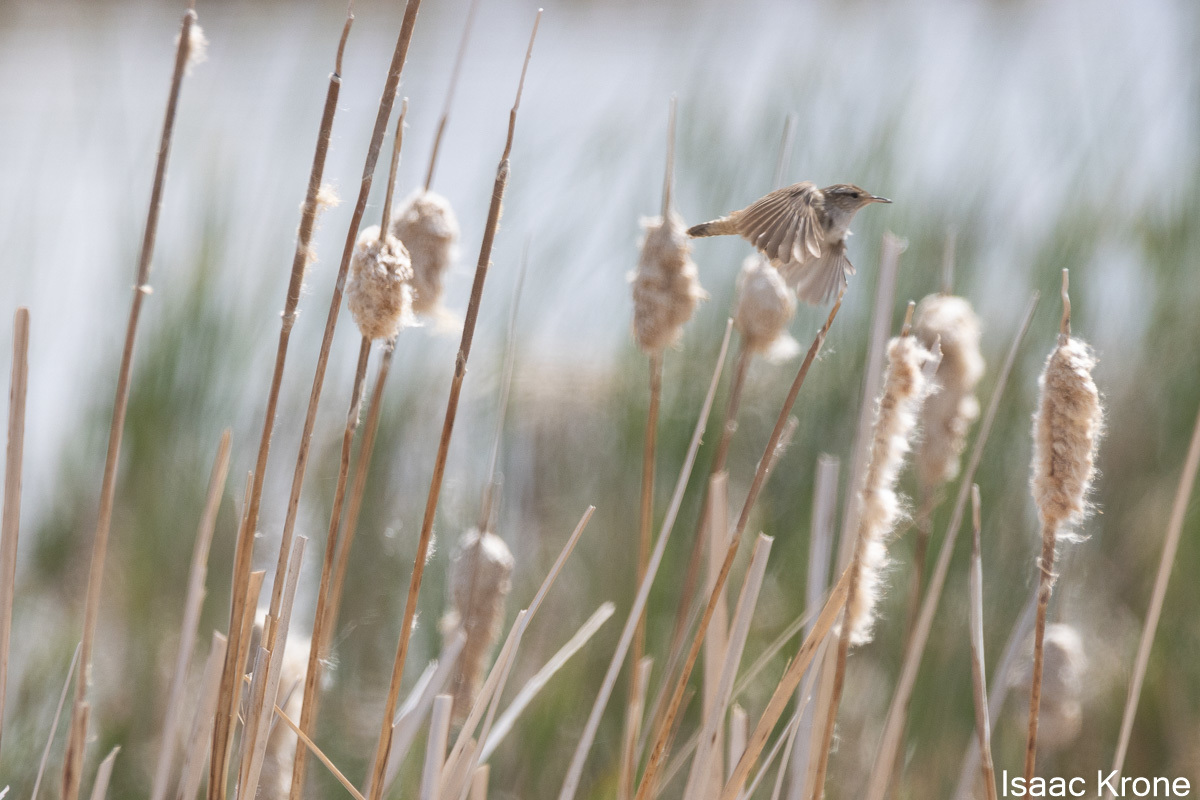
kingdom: Animalia
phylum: Chordata
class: Aves
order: Passeriformes
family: Troglodytidae
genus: Cistothorus
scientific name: Cistothorus palustris
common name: Marsh wren
